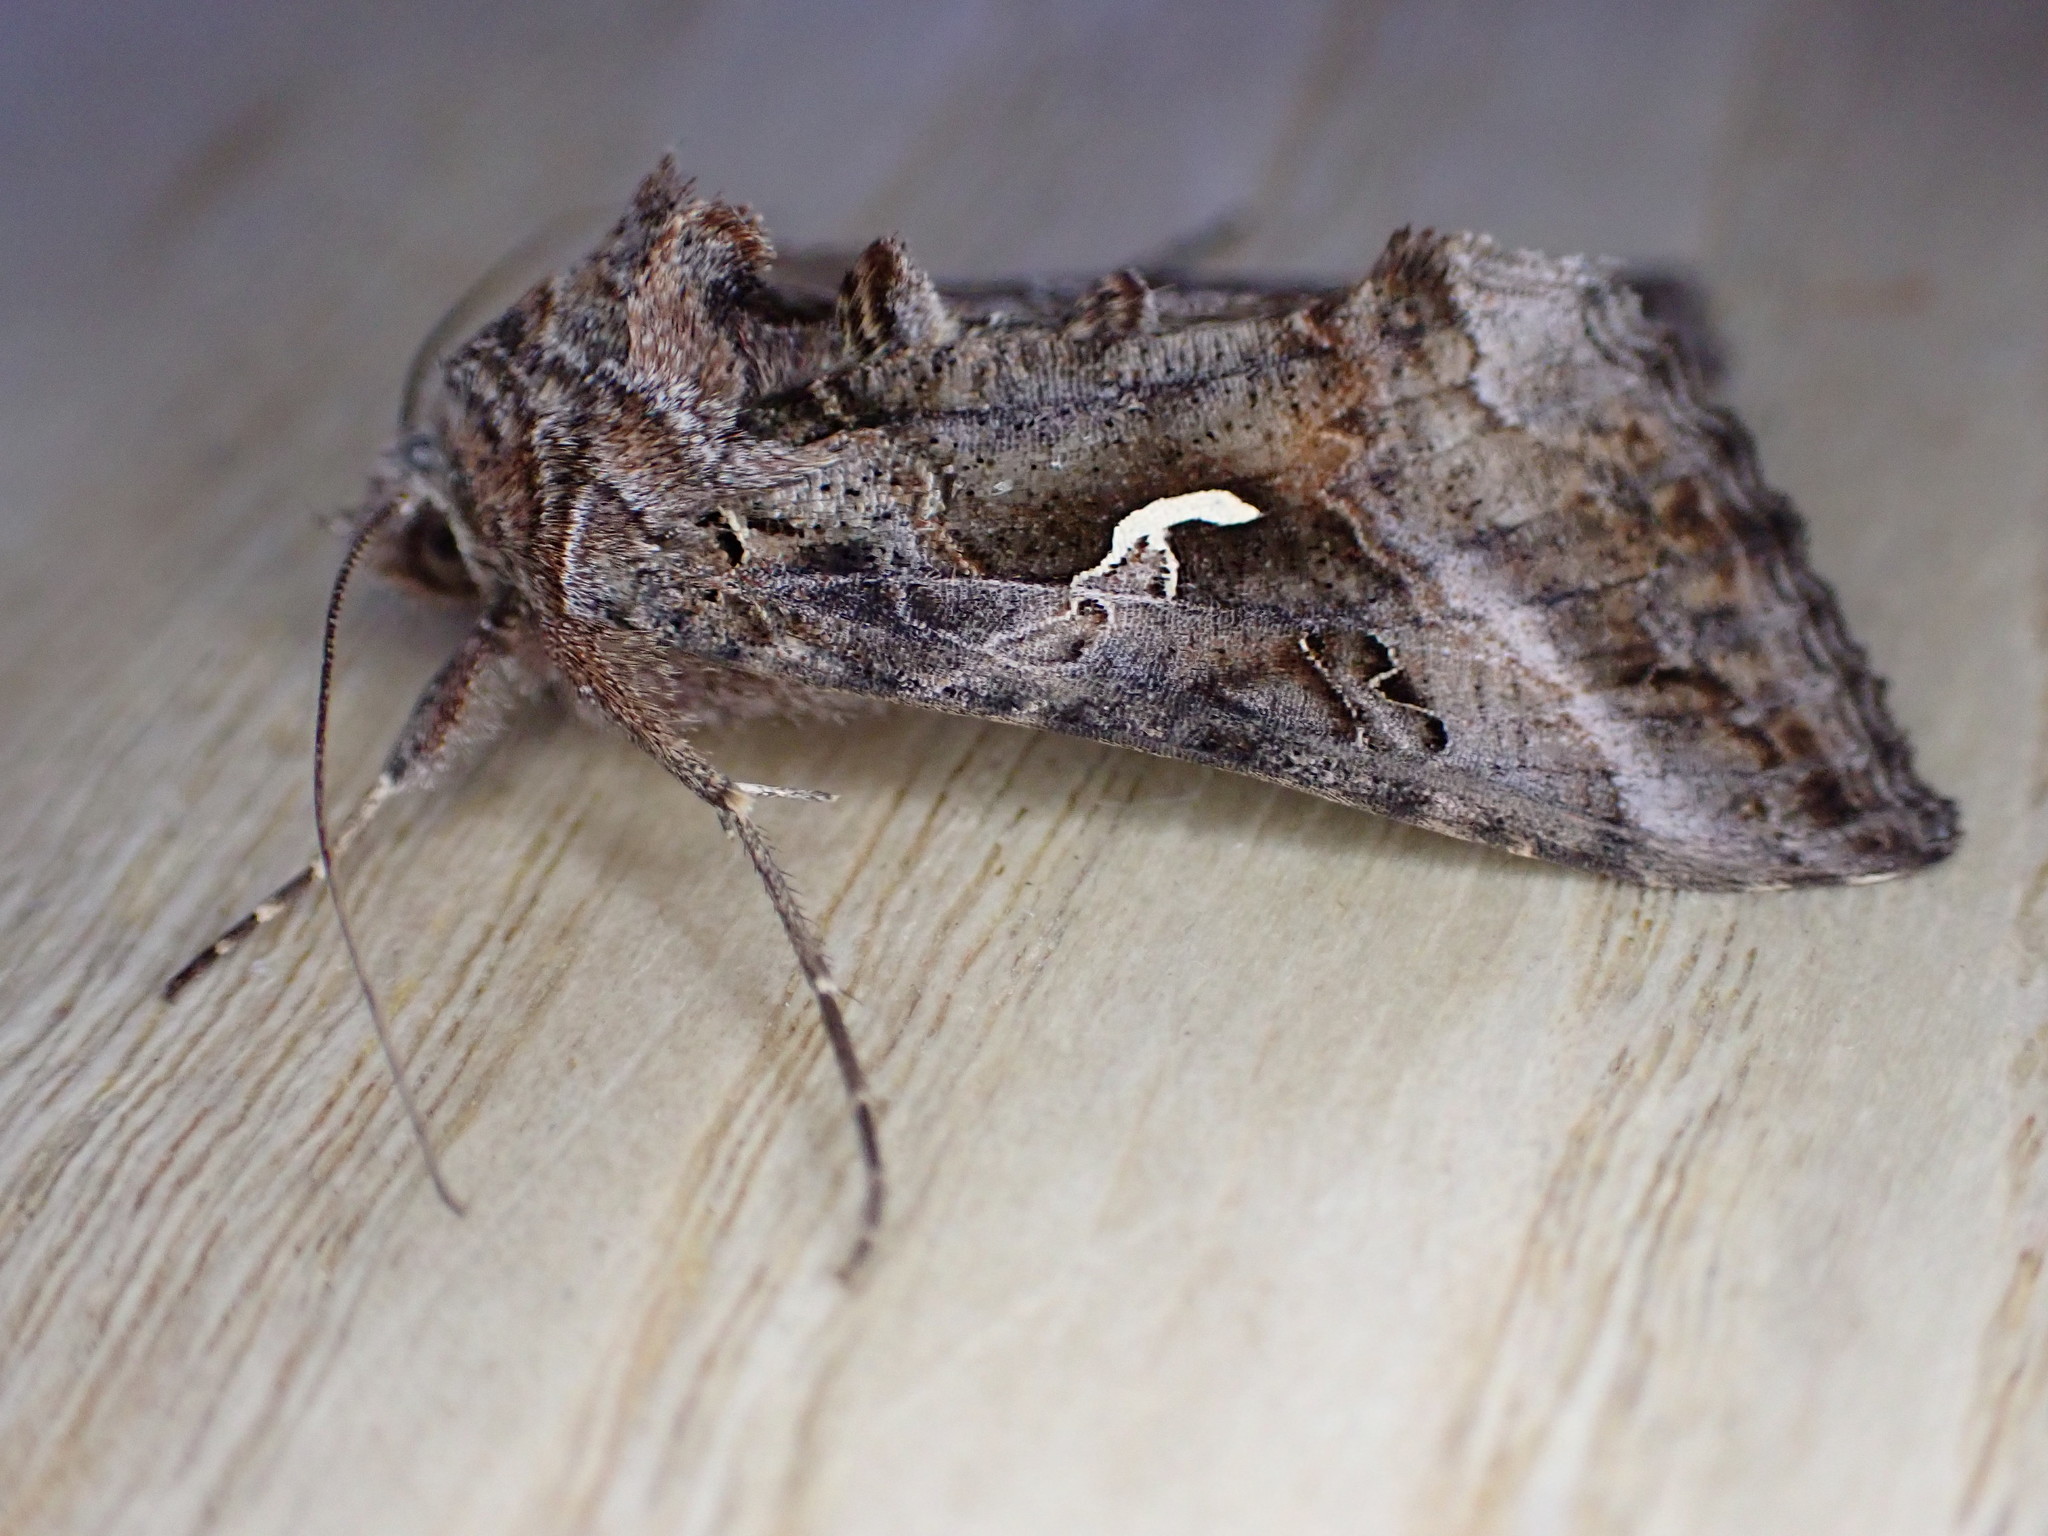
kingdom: Animalia
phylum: Arthropoda
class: Insecta
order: Lepidoptera
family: Noctuidae
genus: Autographa
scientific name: Autographa gamma
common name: Silver y
